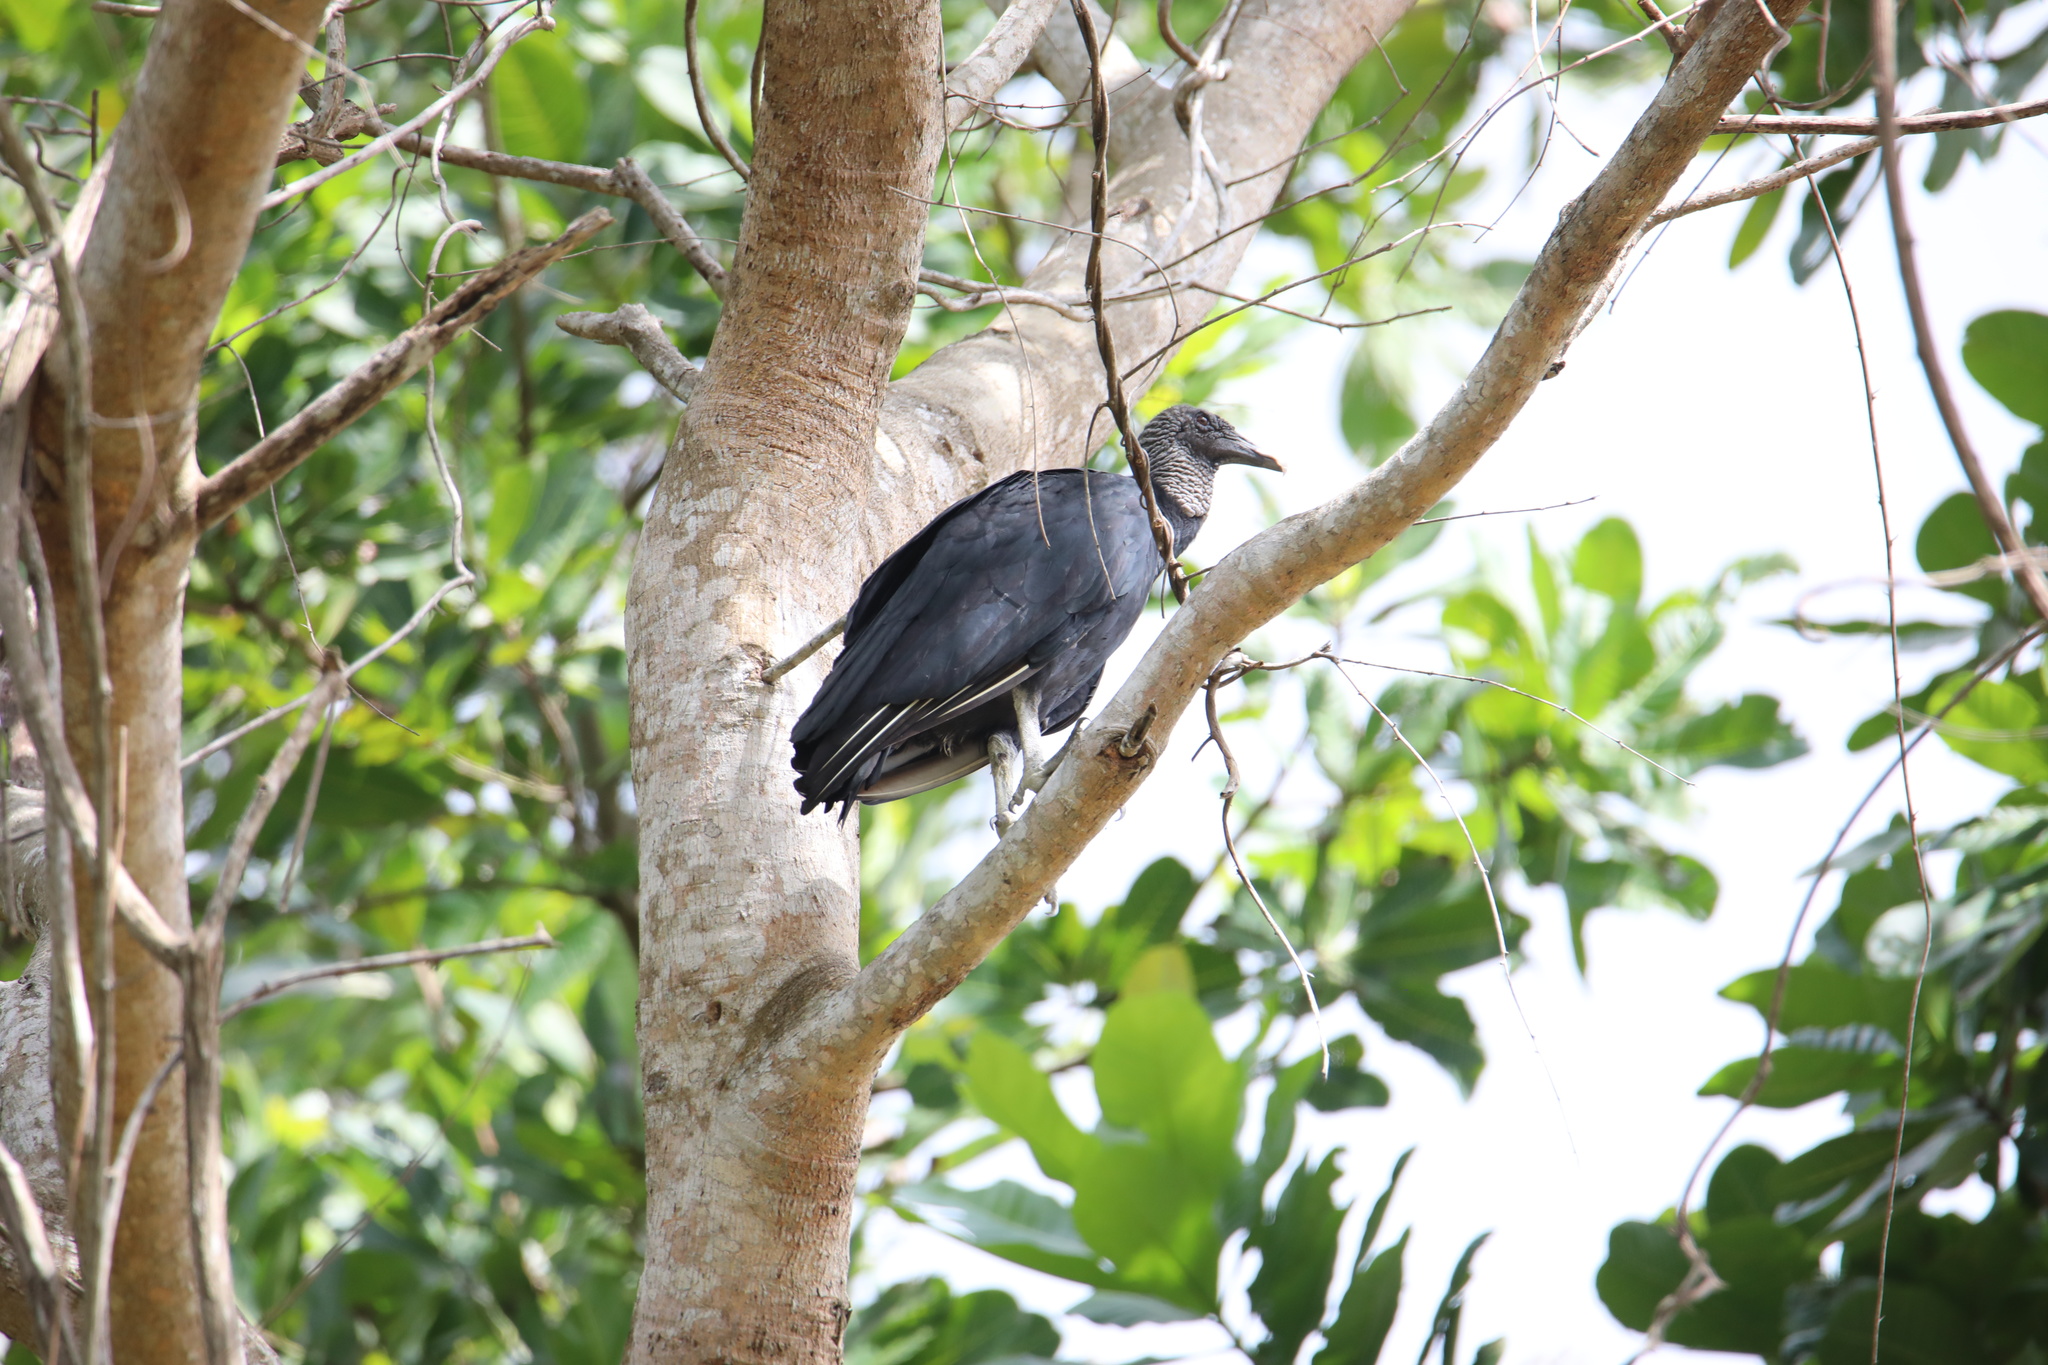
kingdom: Animalia
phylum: Chordata
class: Aves
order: Accipitriformes
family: Cathartidae
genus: Coragyps
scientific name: Coragyps atratus
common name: Black vulture
